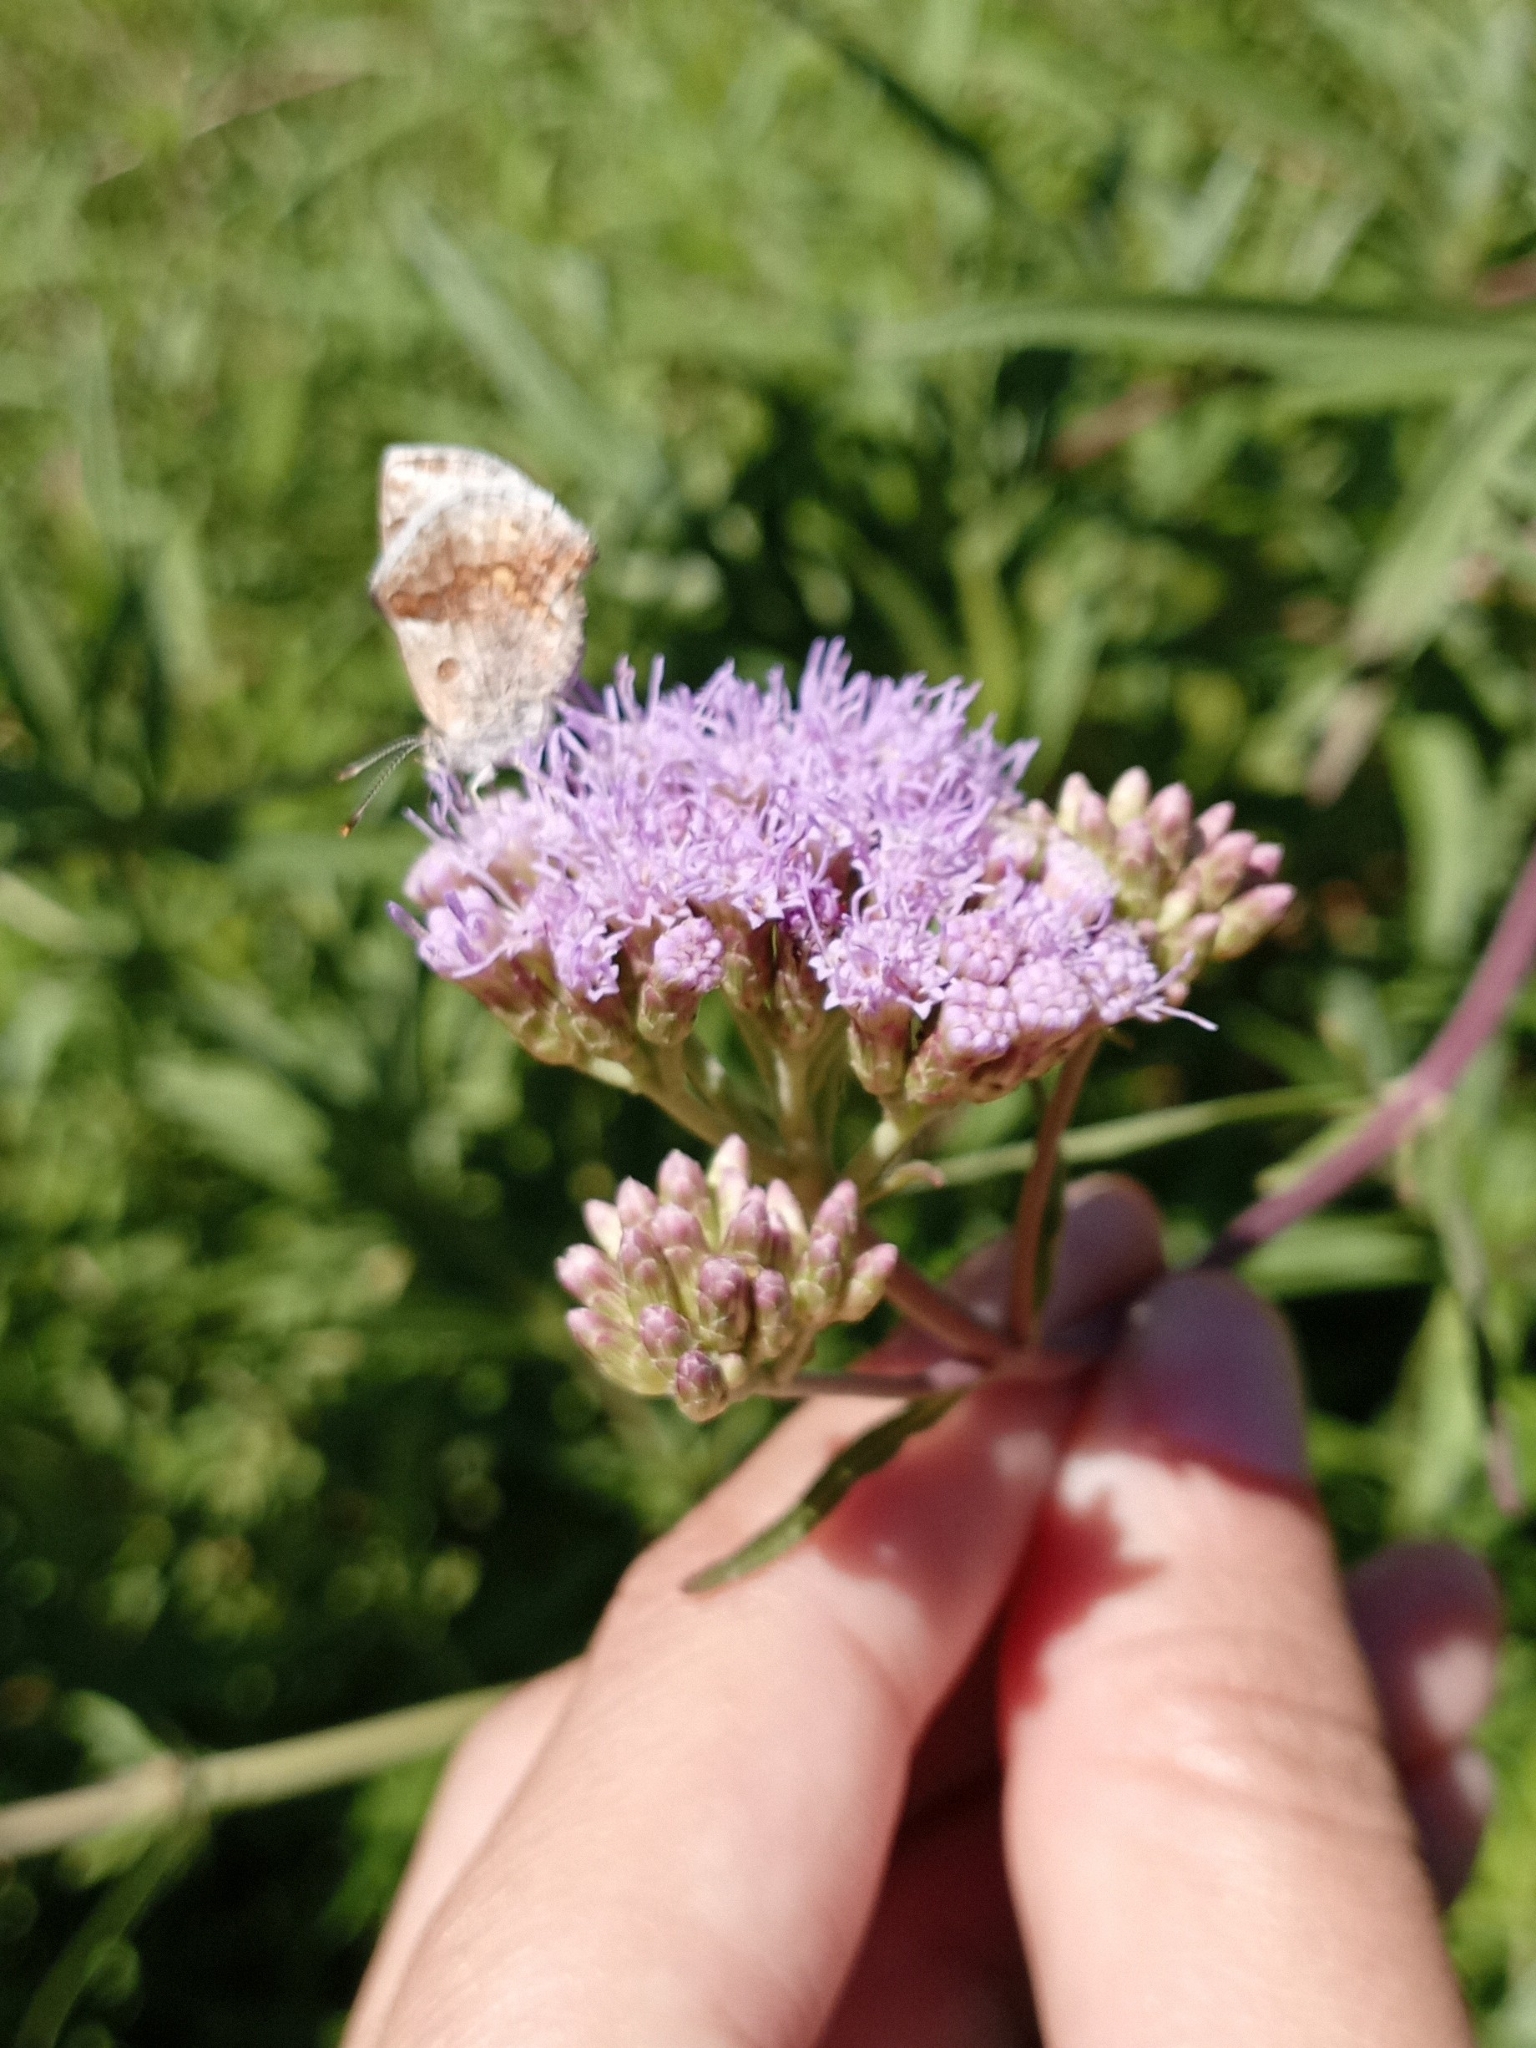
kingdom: Animalia
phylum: Arthropoda
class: Insecta
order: Lepidoptera
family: Lycaenidae
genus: Strymon
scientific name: Strymon bazochii
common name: Lantana scrub-hairstreak
